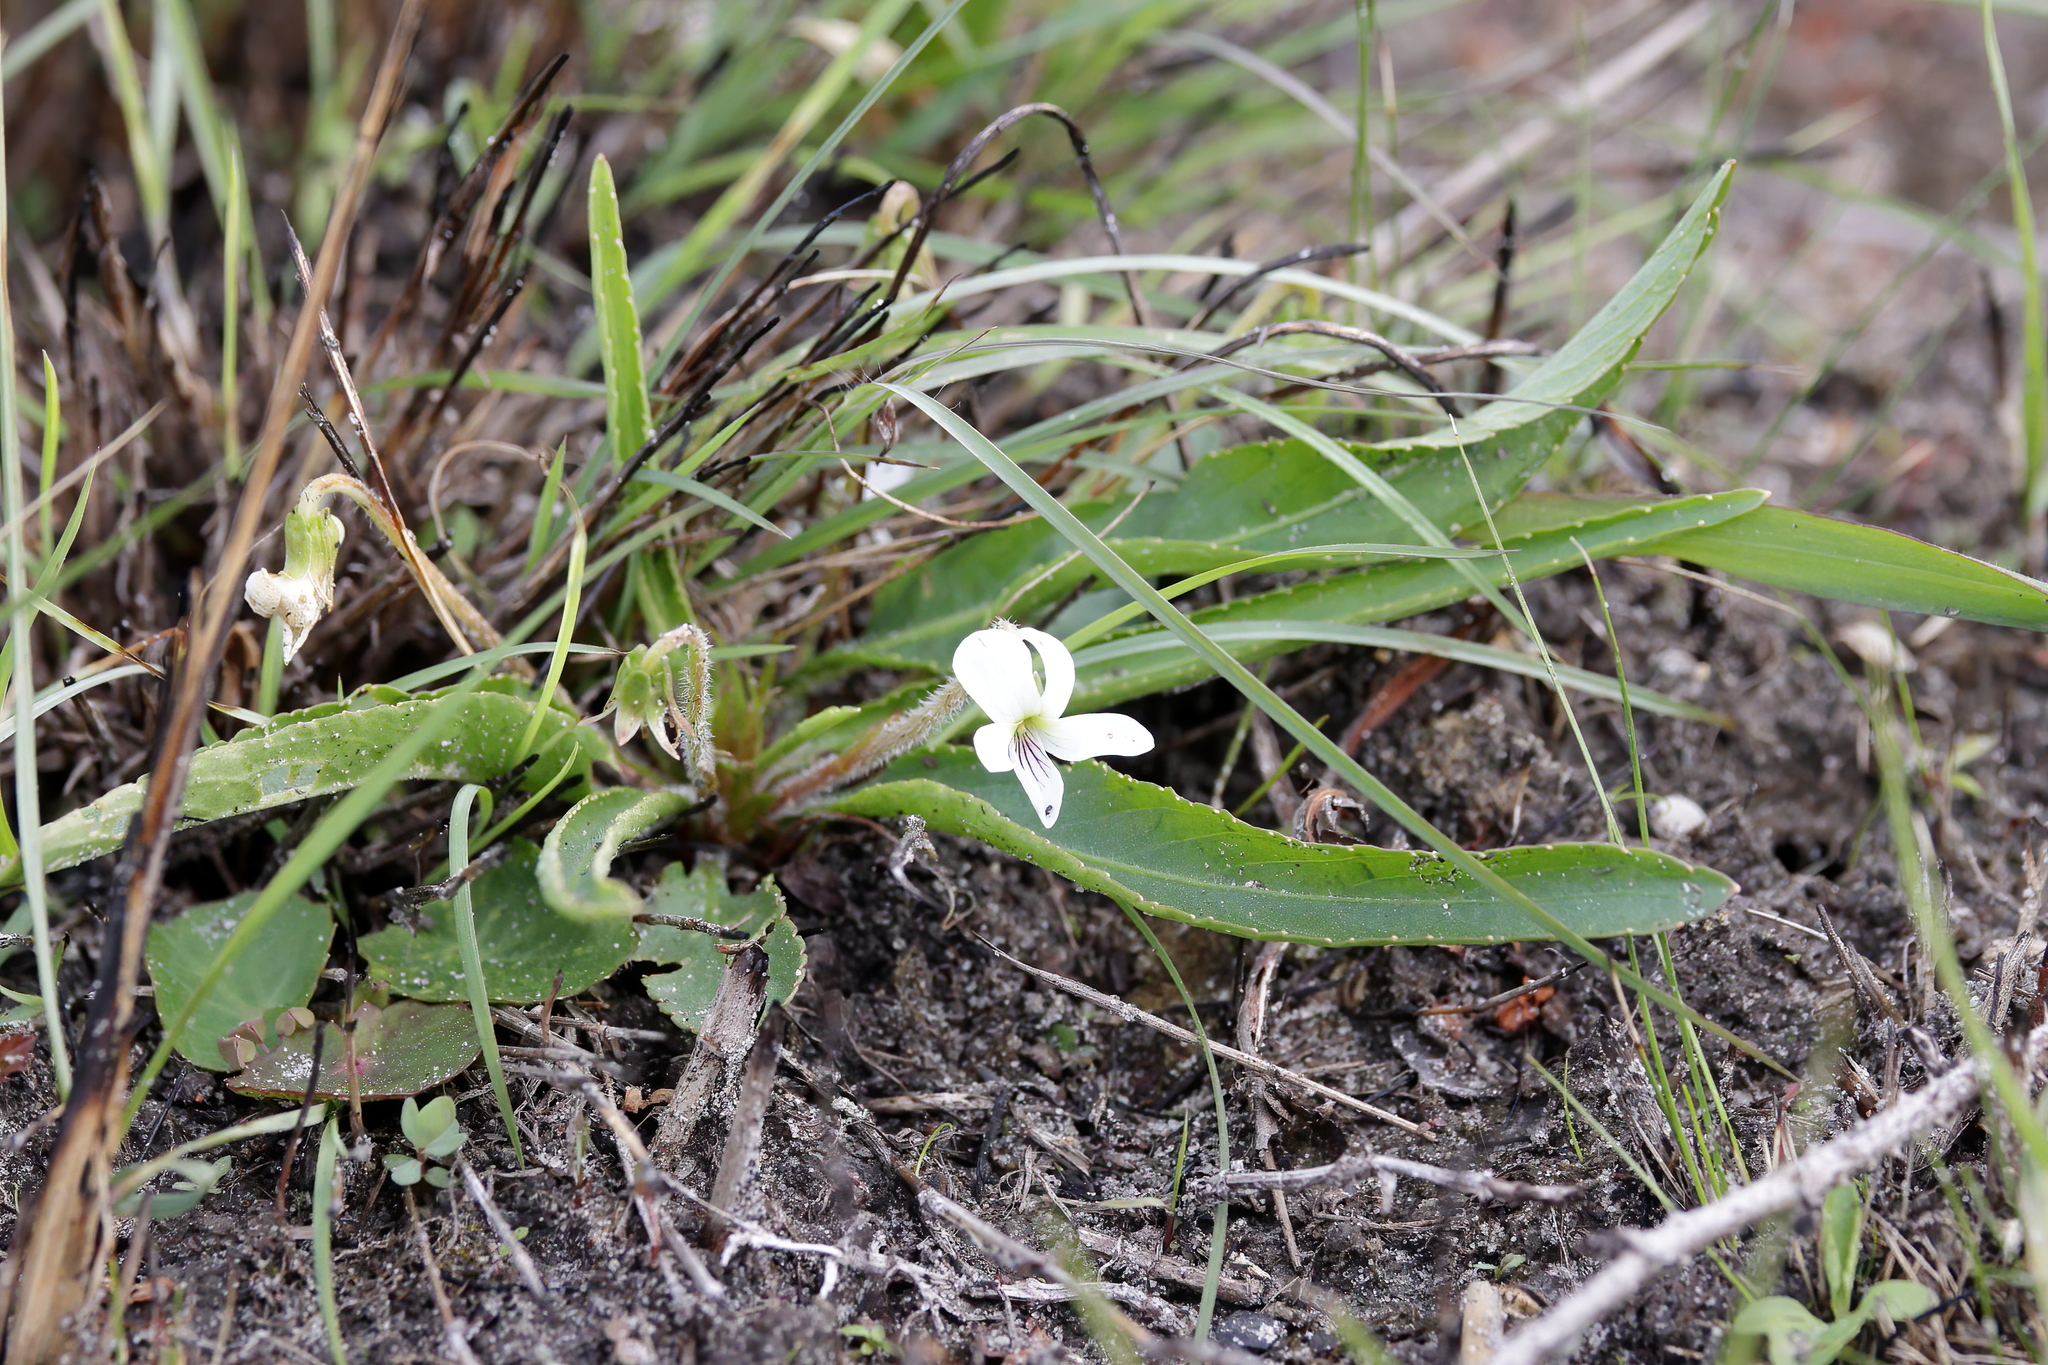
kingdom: Plantae
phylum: Tracheophyta
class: Magnoliopsida
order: Malpighiales
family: Violaceae
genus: Viola
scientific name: Viola lanceolata
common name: Bog white violet
